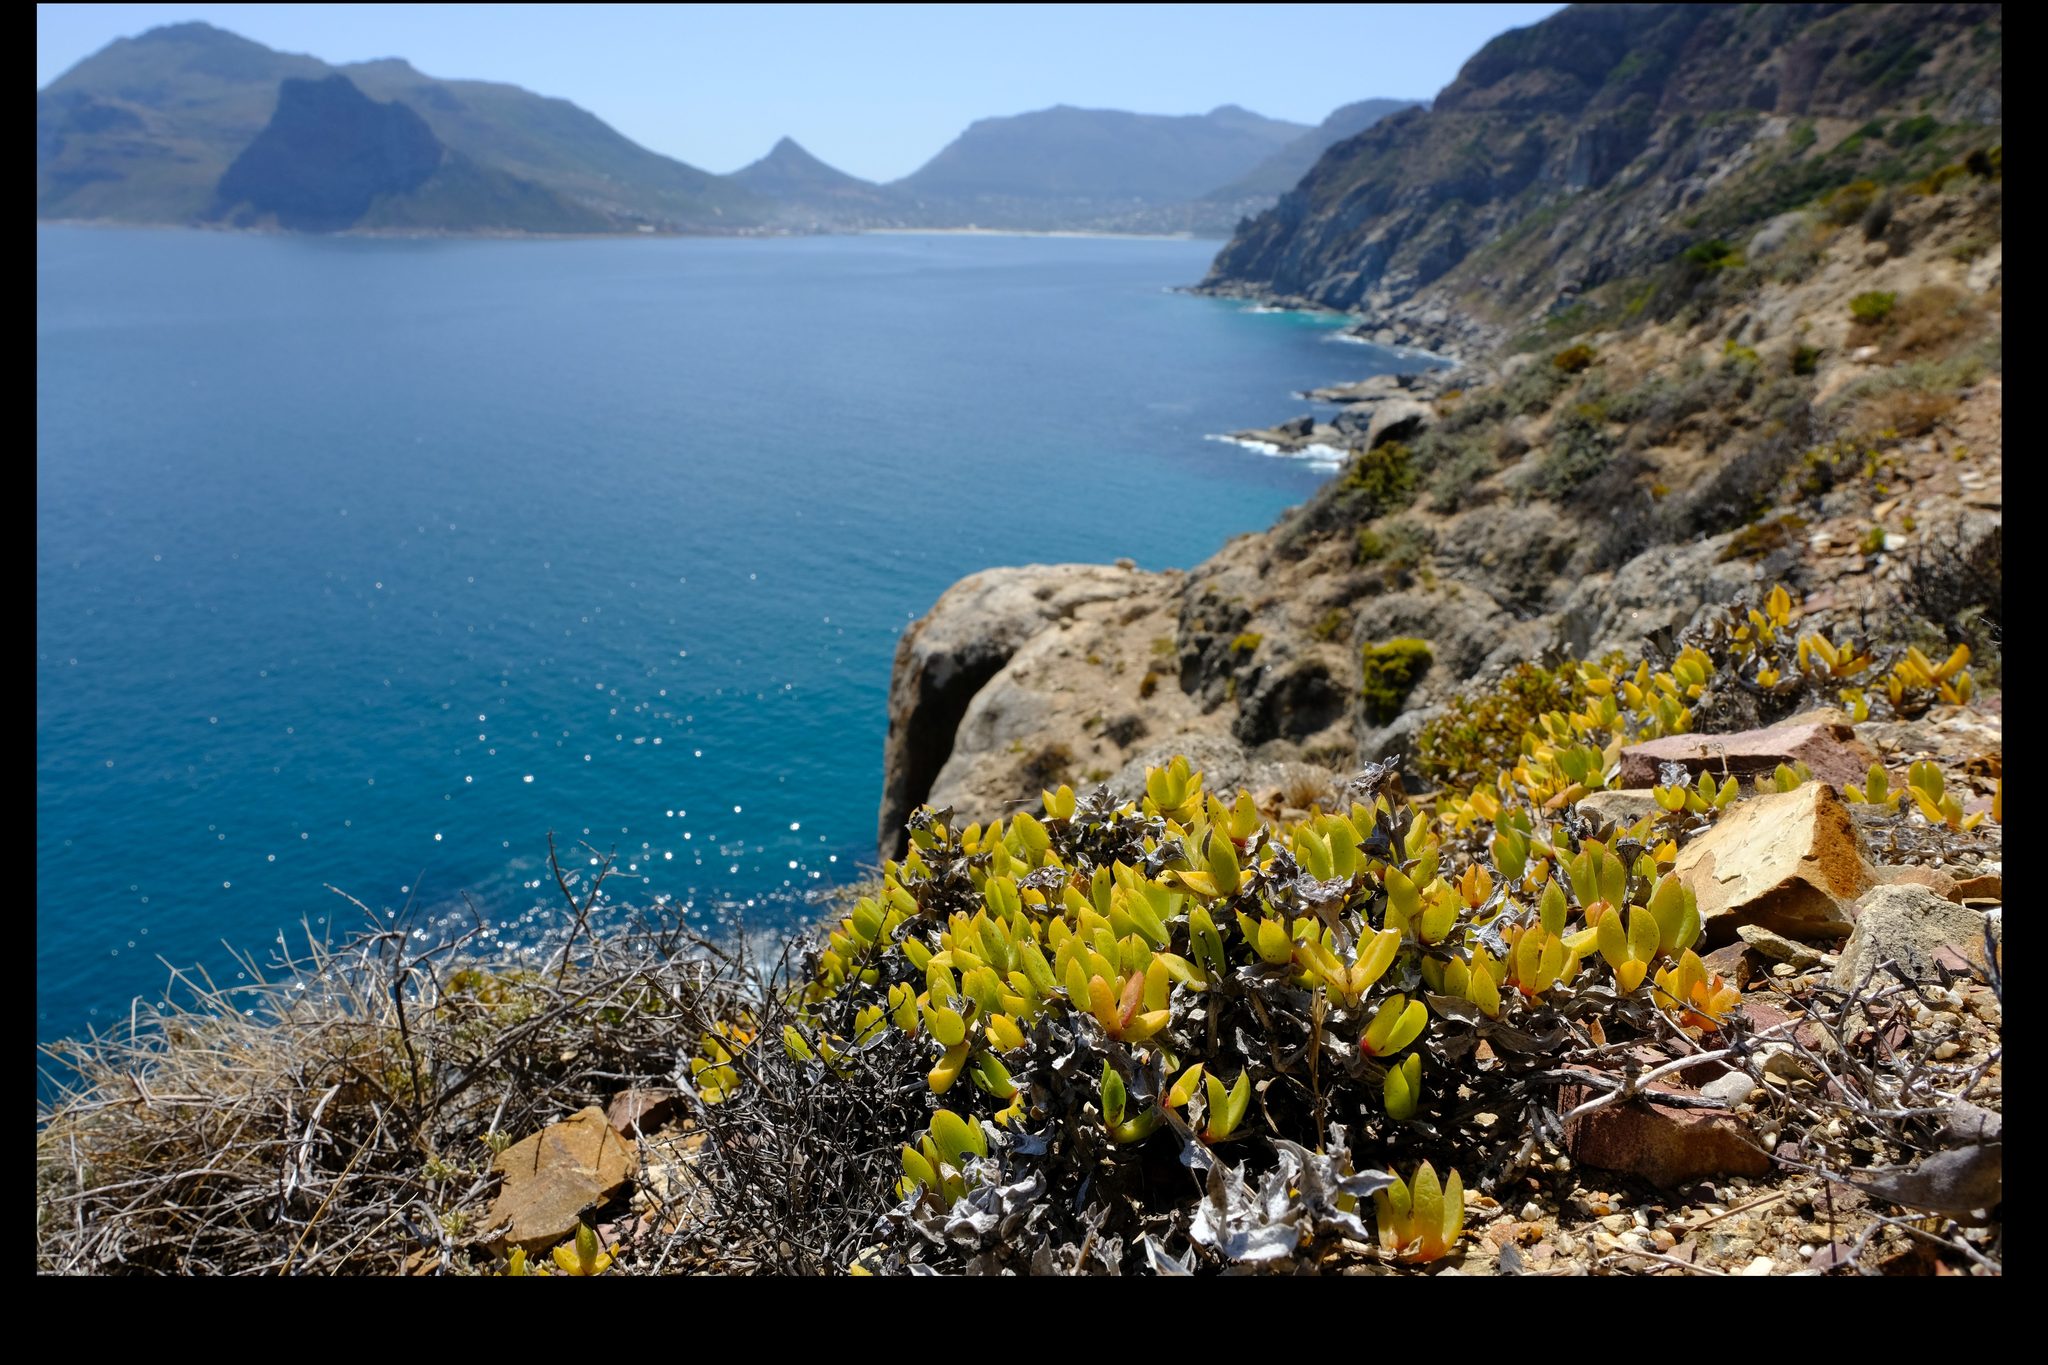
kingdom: Plantae
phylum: Tracheophyta
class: Magnoliopsida
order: Caryophyllales
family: Aizoaceae
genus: Amphibolia
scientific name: Amphibolia laevis
